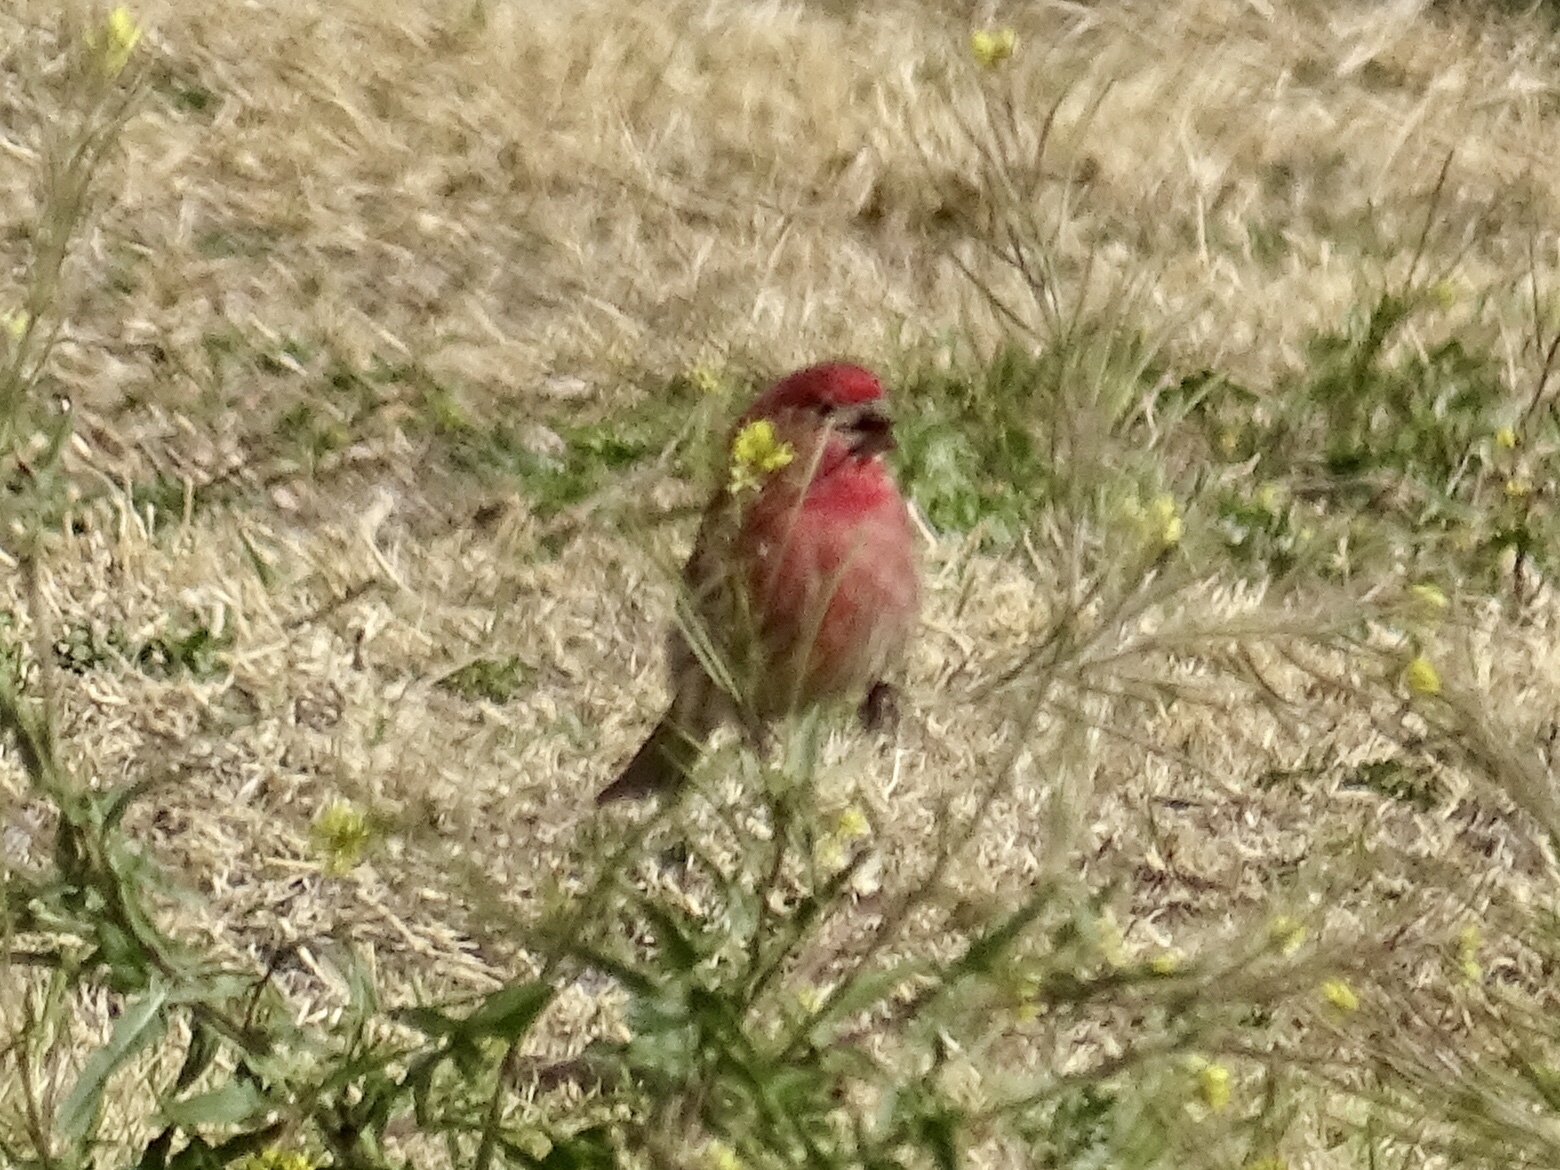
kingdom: Animalia
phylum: Chordata
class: Aves
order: Passeriformes
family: Fringillidae
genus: Haemorhous
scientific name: Haemorhous mexicanus
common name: House finch
